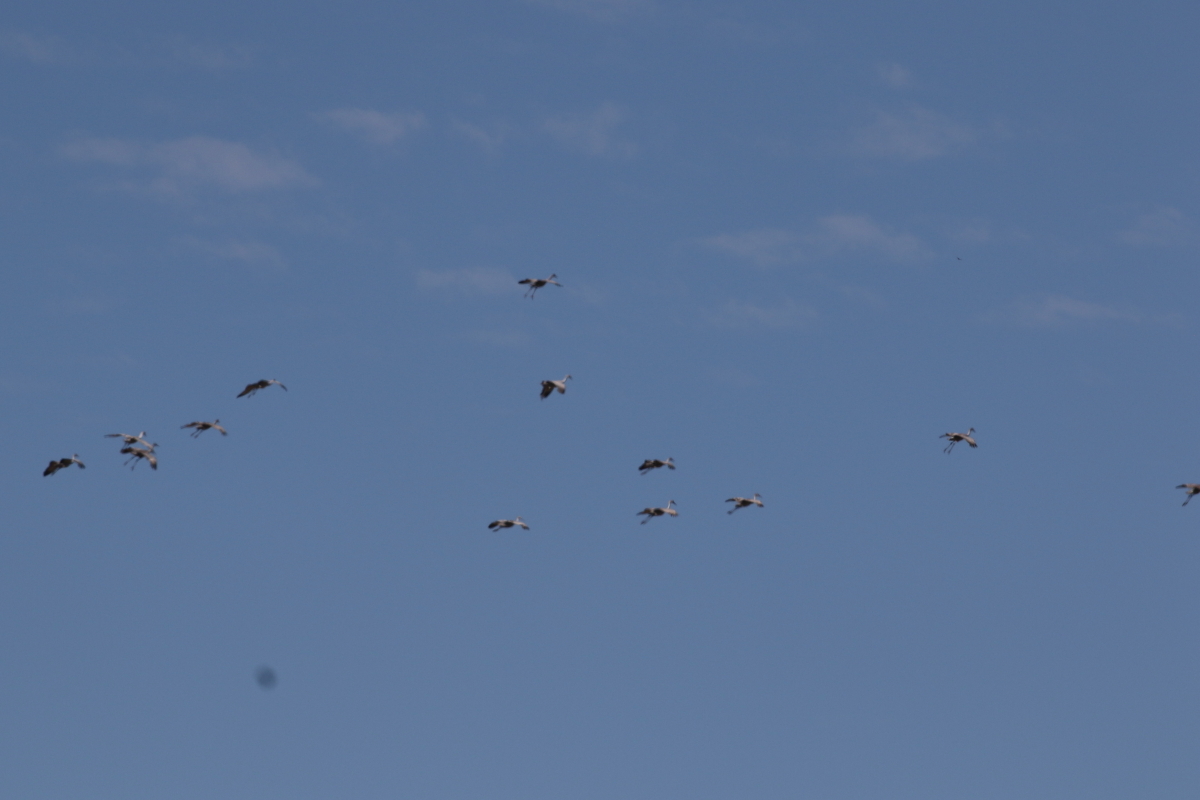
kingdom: Animalia
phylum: Chordata
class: Aves
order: Gruiformes
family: Gruidae
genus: Grus
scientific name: Grus canadensis
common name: Sandhill crane
